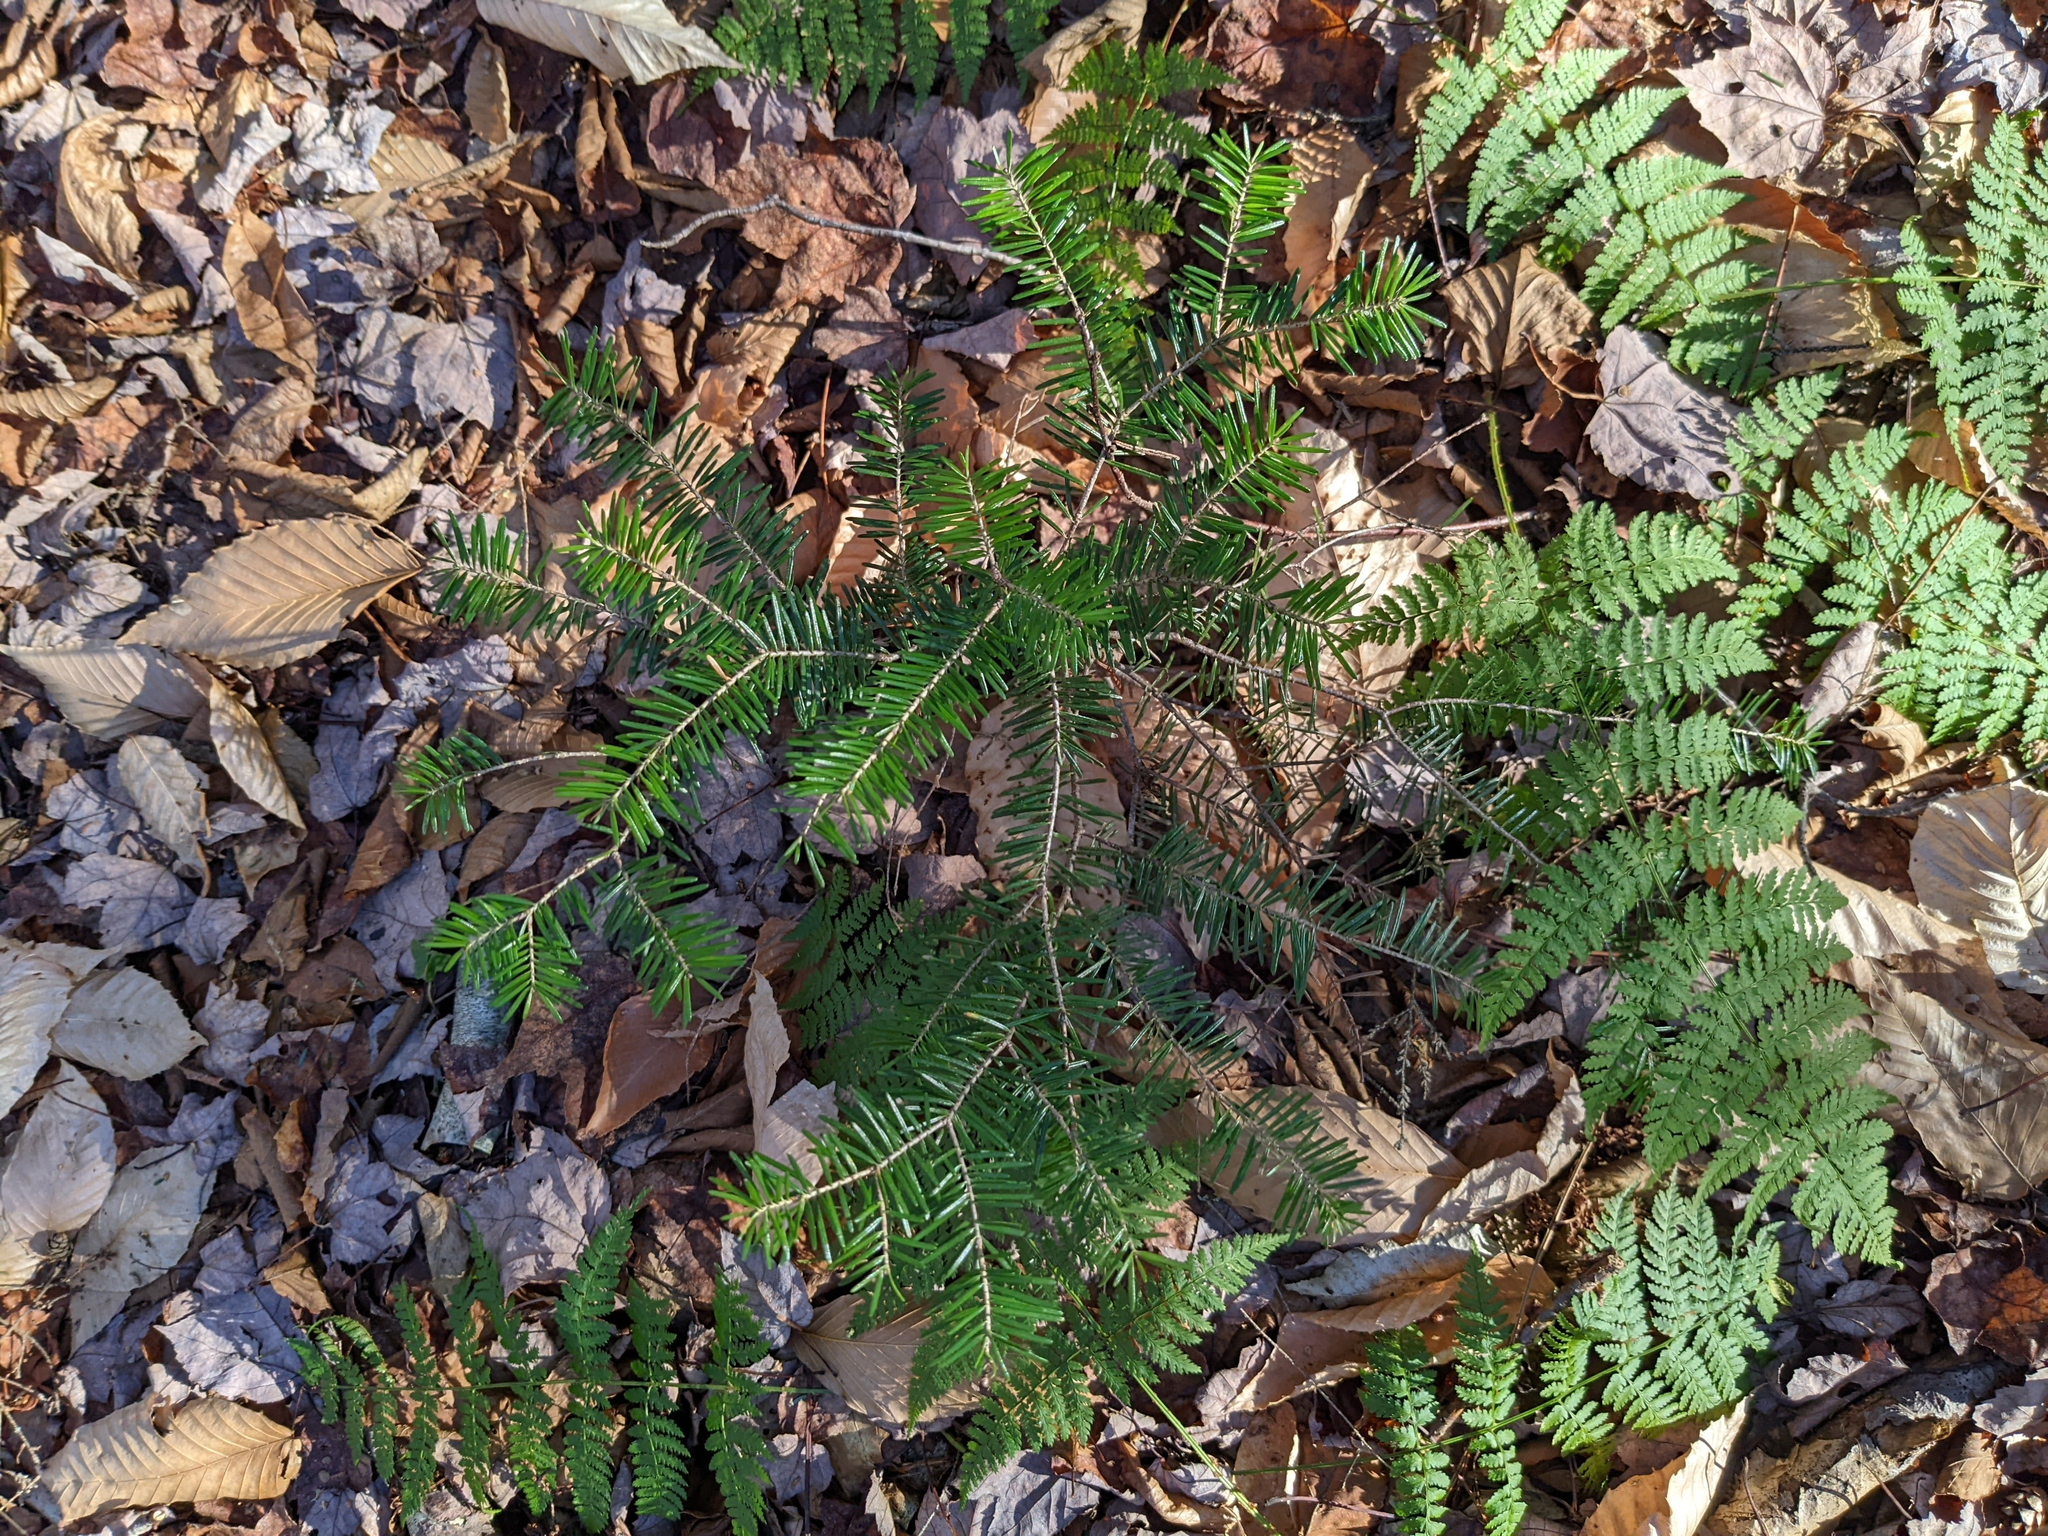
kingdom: Plantae
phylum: Tracheophyta
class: Pinopsida
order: Pinales
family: Pinaceae
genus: Abies
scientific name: Abies balsamea
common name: Balsam fir
